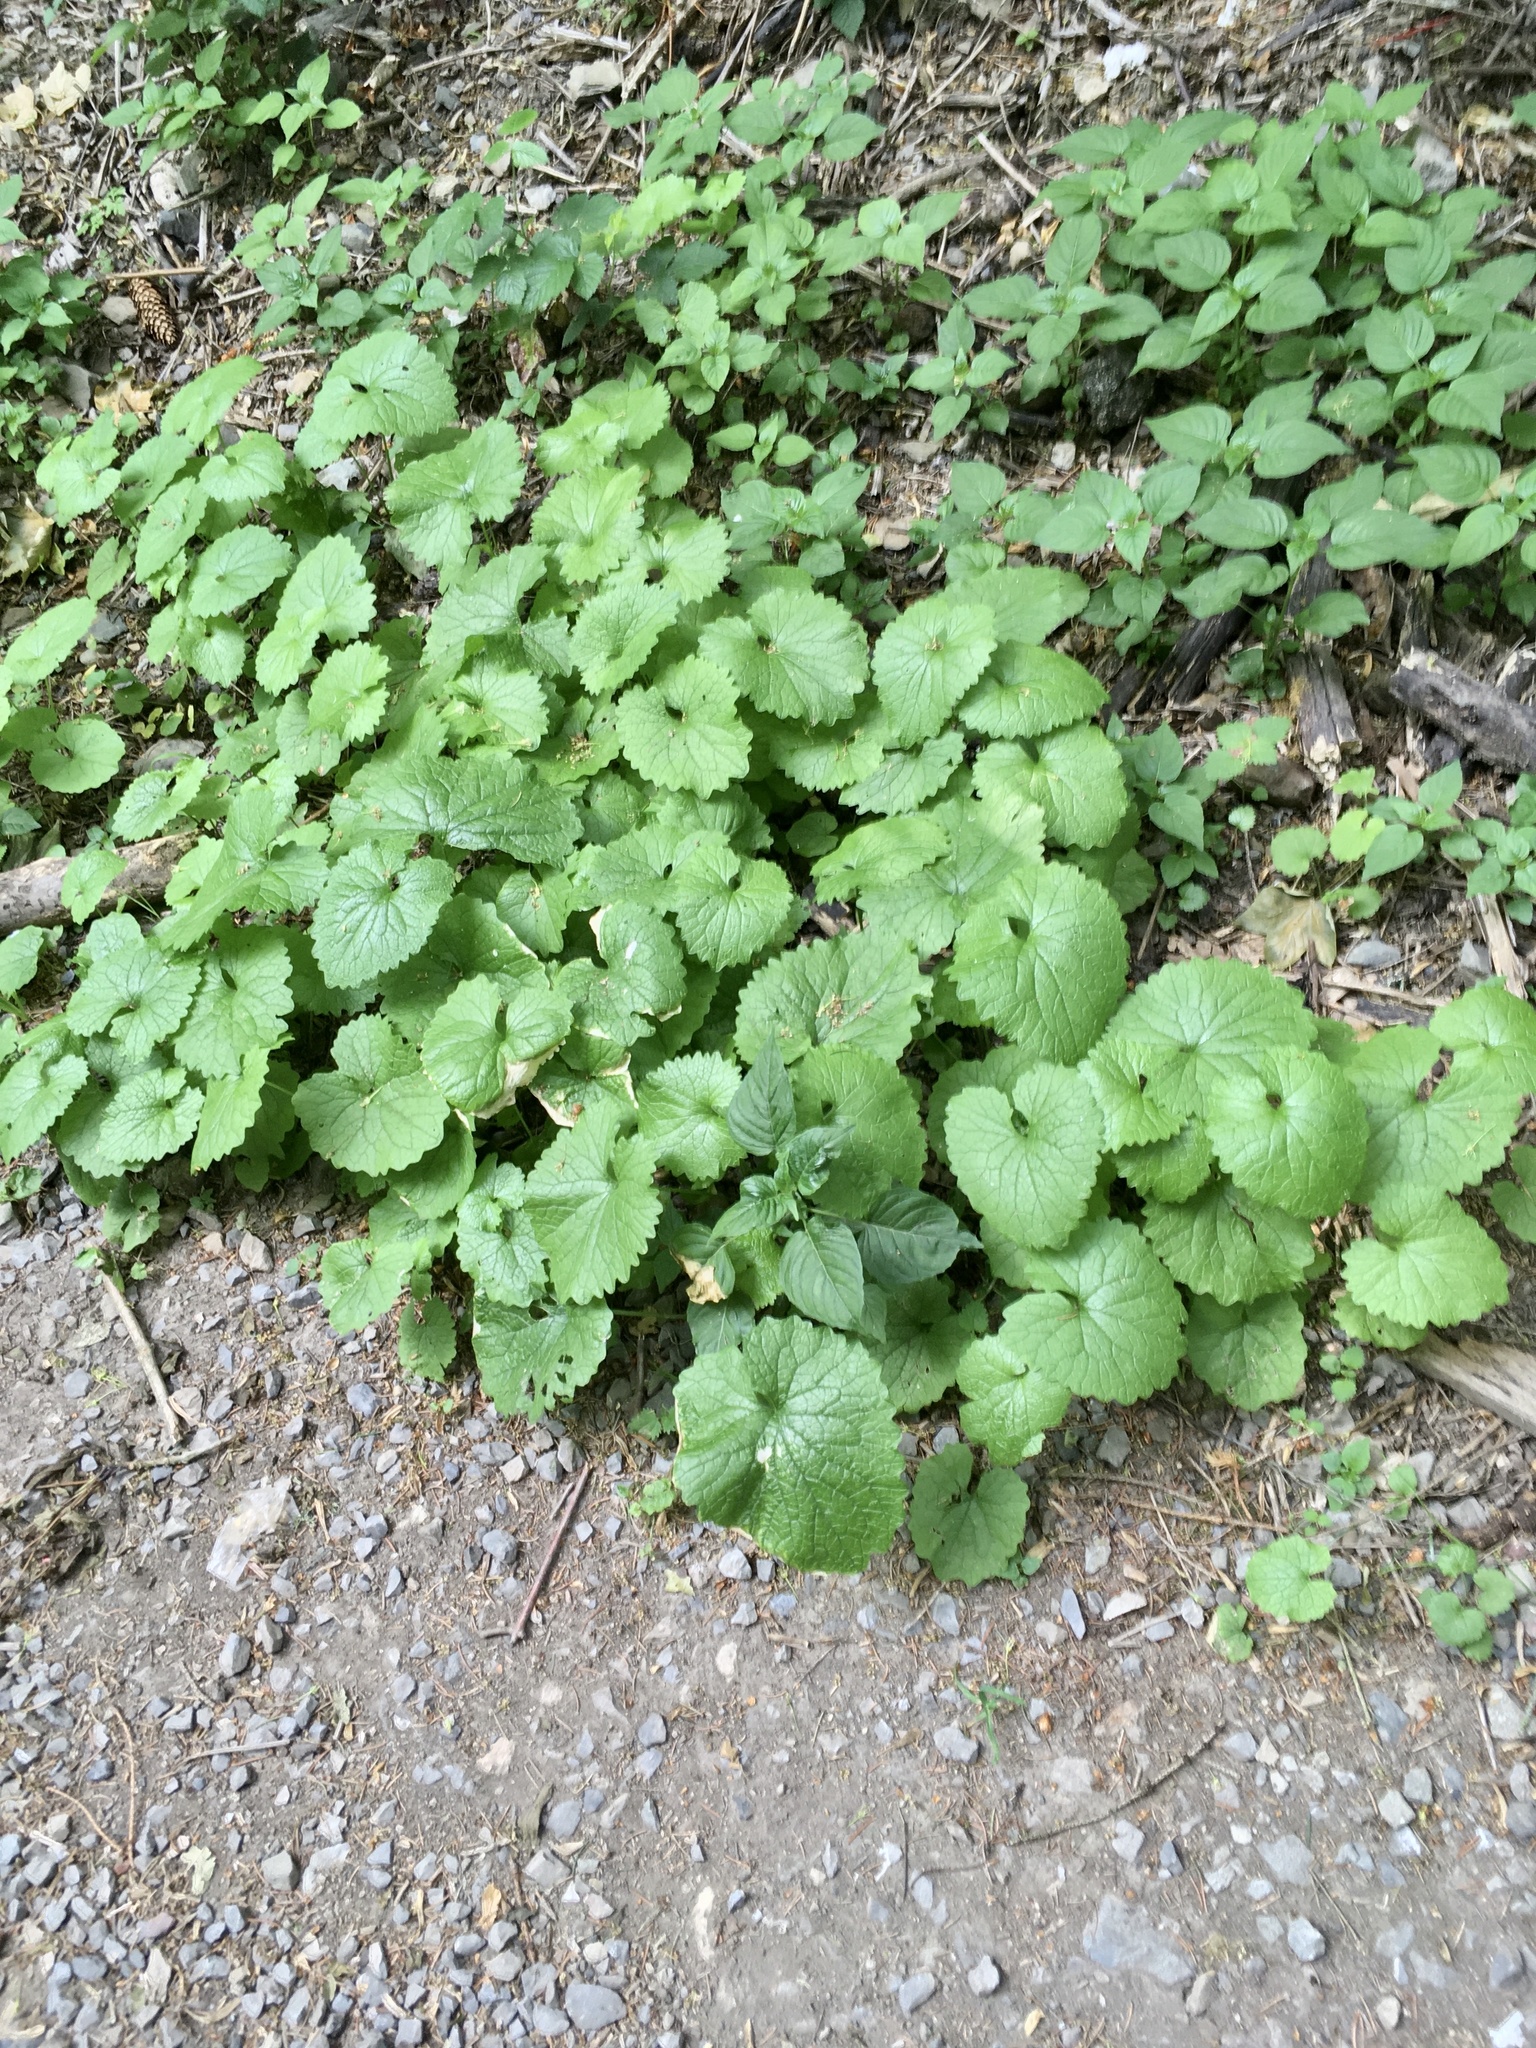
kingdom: Plantae
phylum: Tracheophyta
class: Magnoliopsida
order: Brassicales
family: Brassicaceae
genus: Alliaria
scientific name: Alliaria petiolata
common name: Garlic mustard
